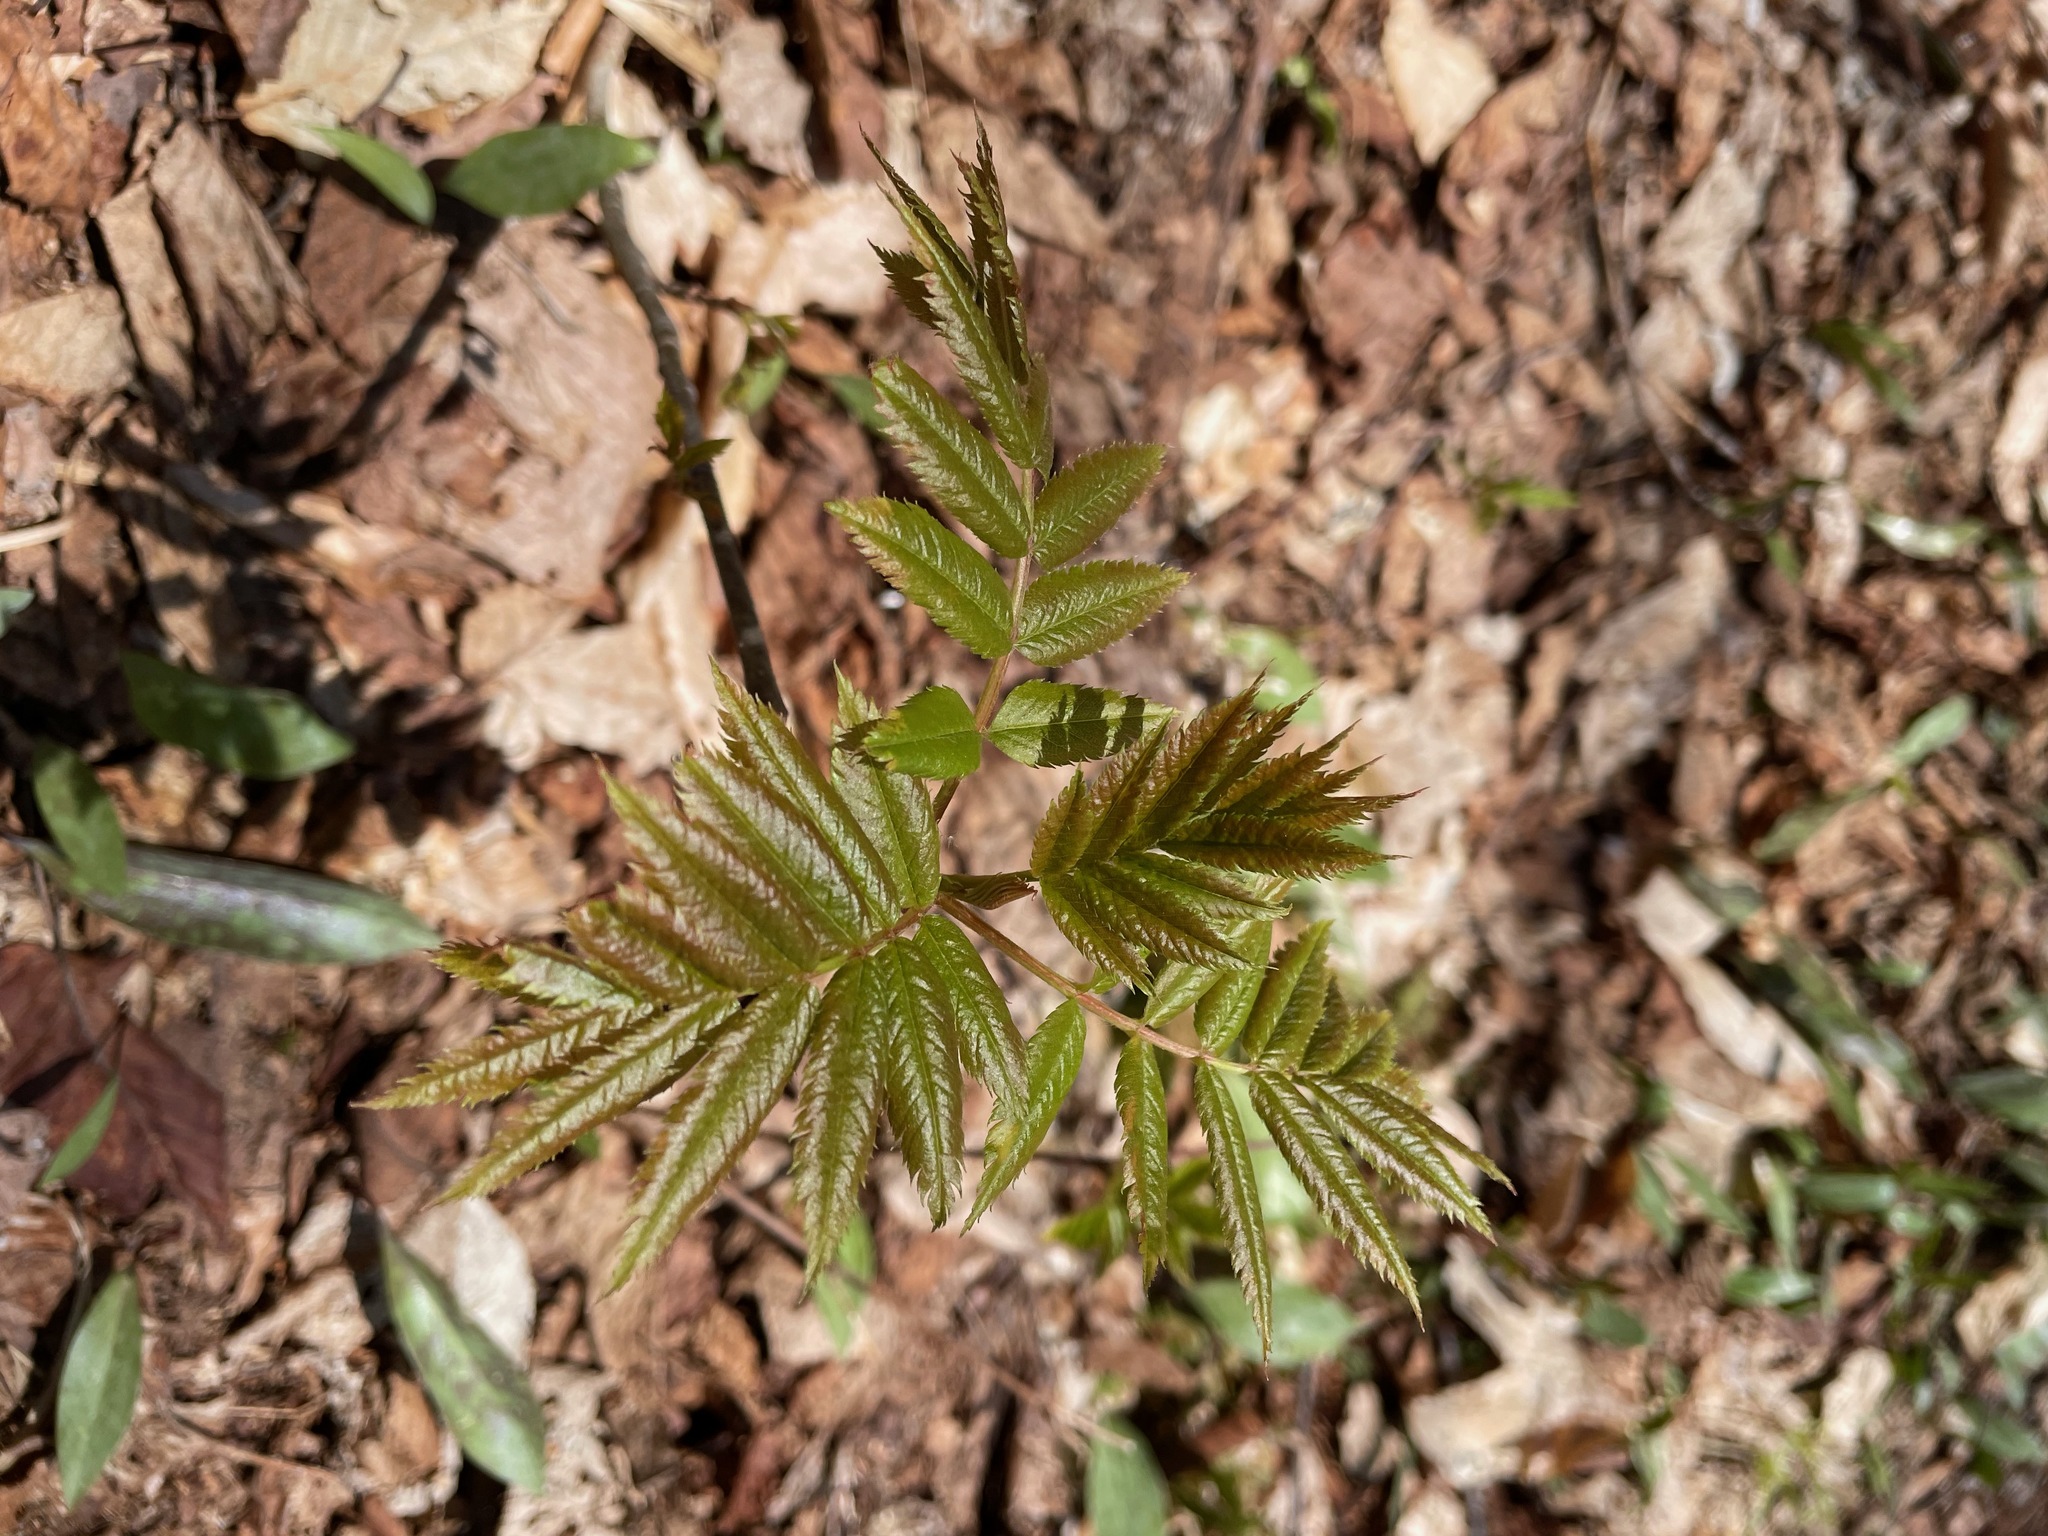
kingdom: Plantae
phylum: Tracheophyta
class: Magnoliopsida
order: Rosales
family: Rosaceae
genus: Sorbus
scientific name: Sorbus americana
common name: American mountain-ash
